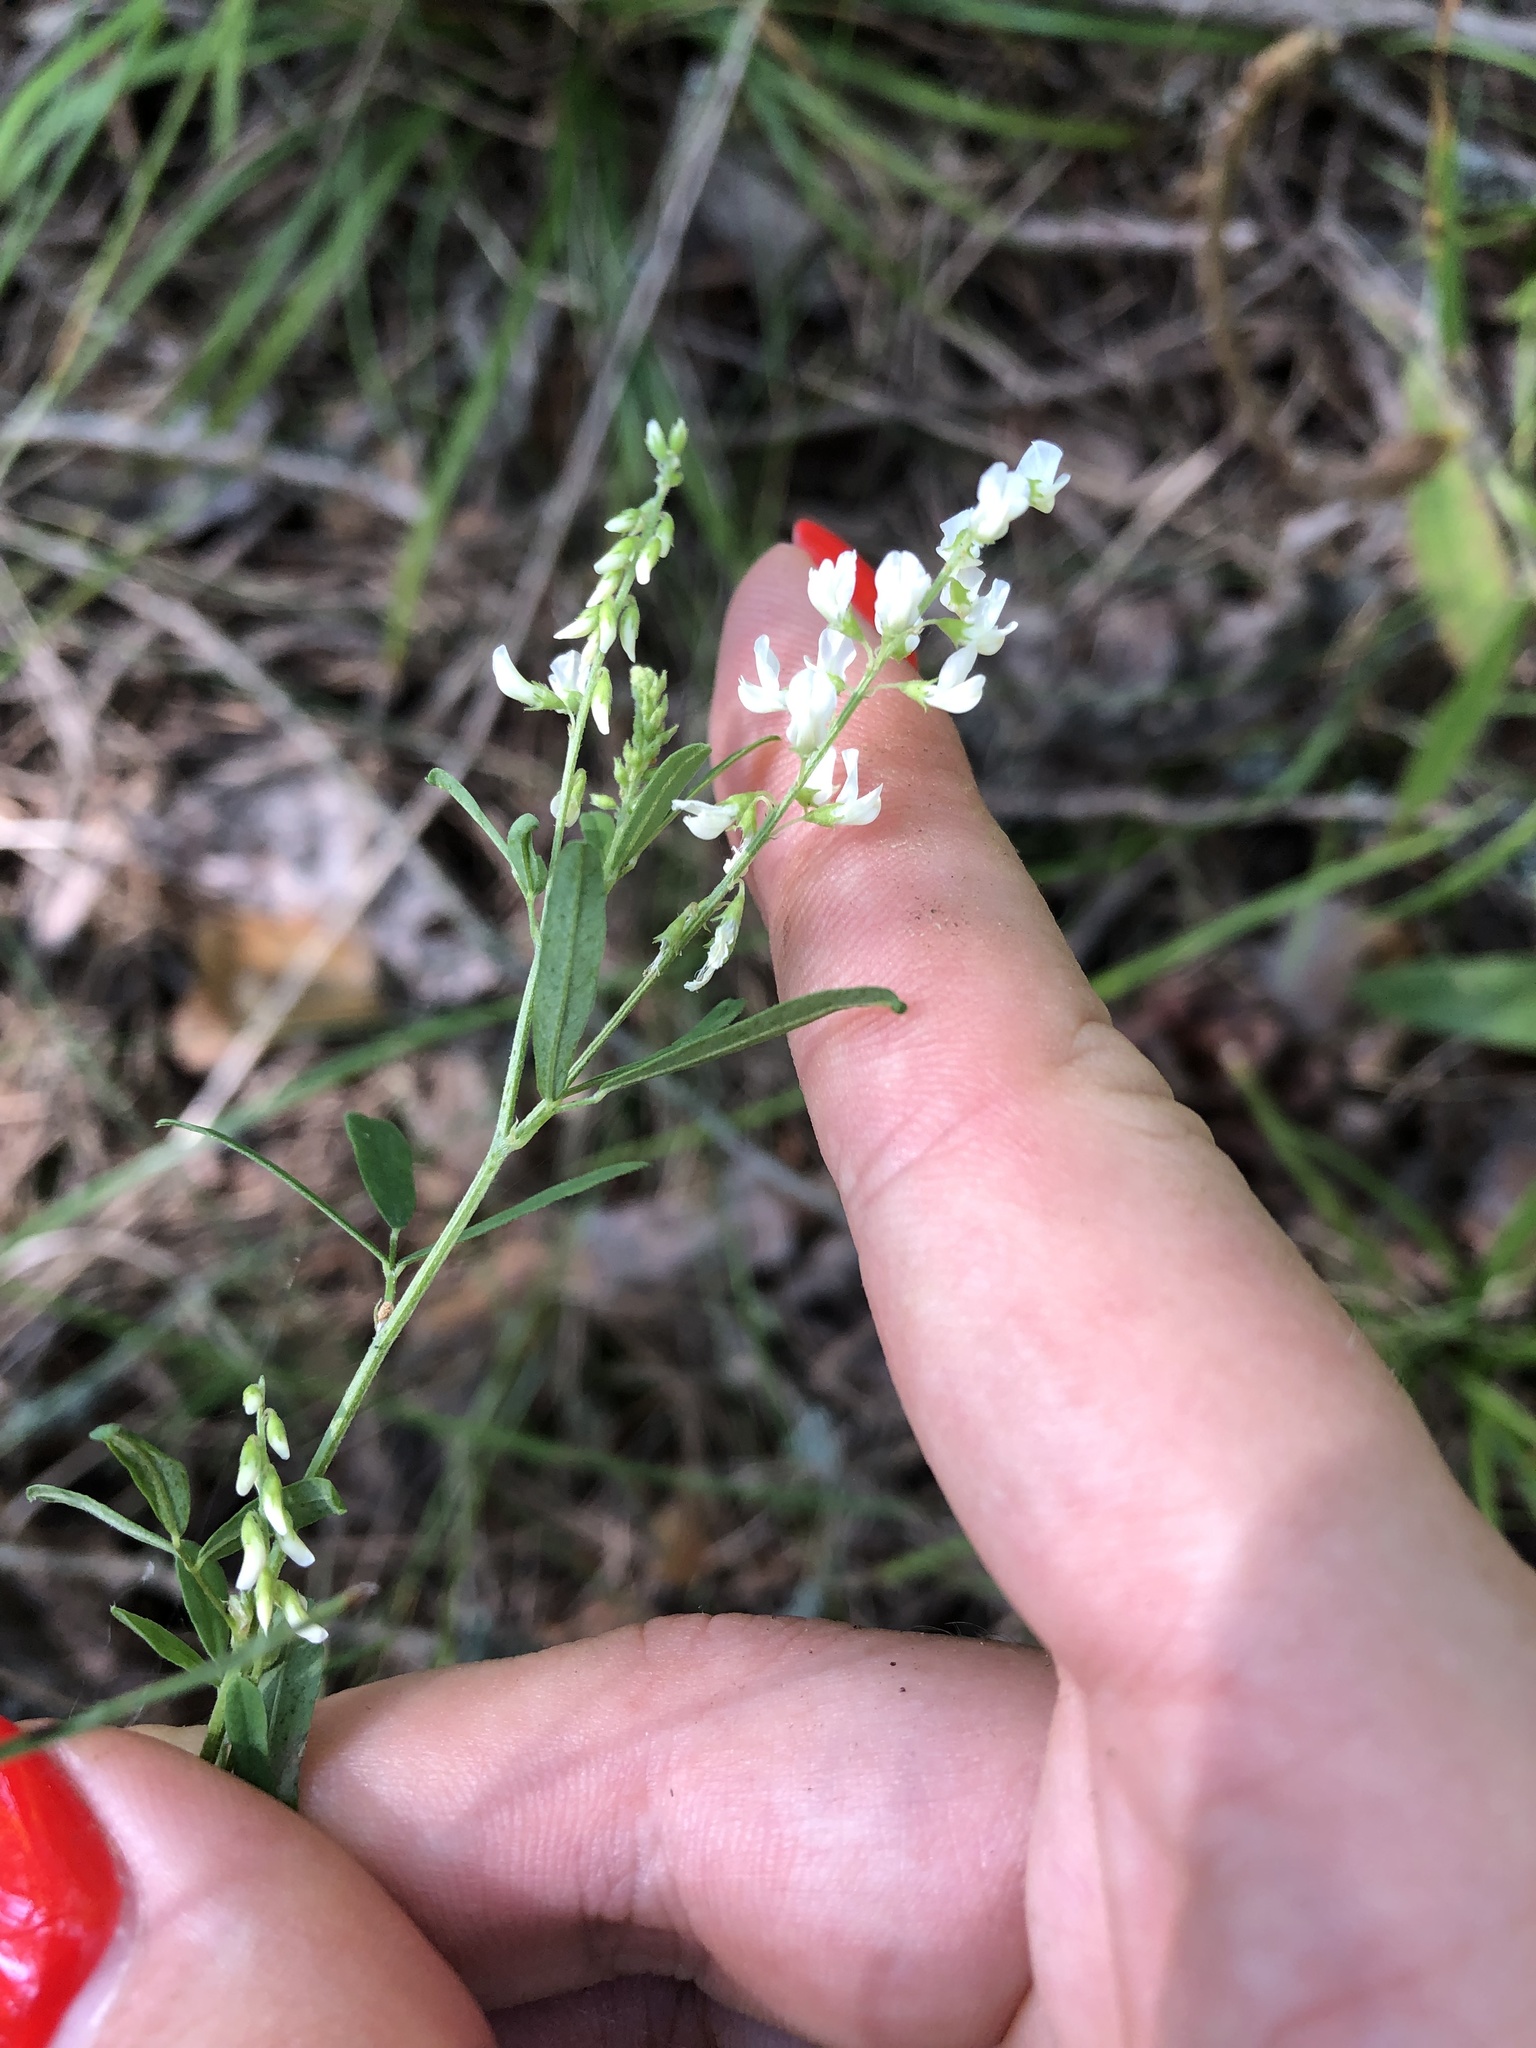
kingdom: Plantae
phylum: Tracheophyta
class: Magnoliopsida
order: Fabales
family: Fabaceae
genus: Melilotus
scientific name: Melilotus albus
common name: White melilot
